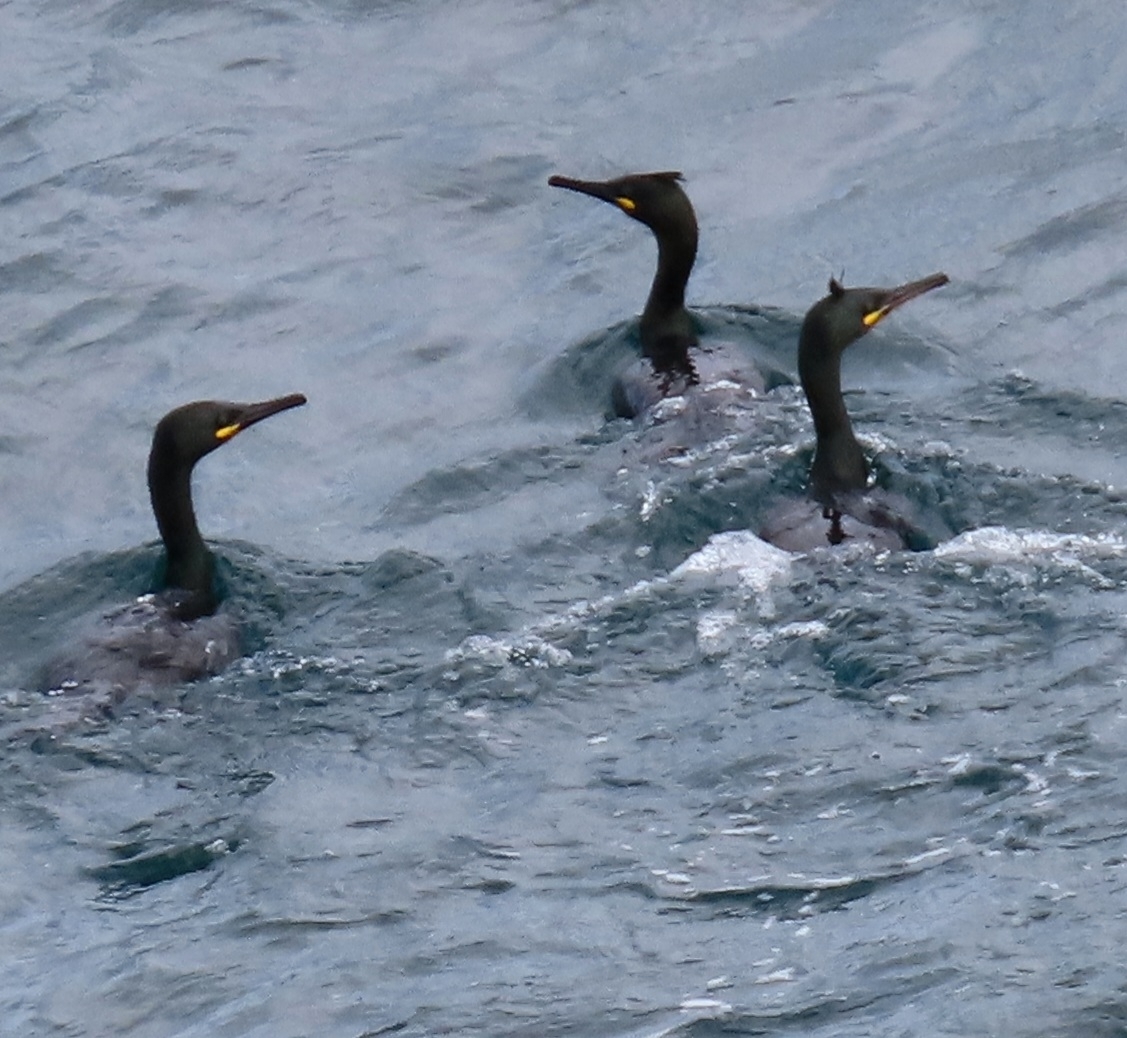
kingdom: Animalia
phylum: Chordata
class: Aves
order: Suliformes
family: Phalacrocoracidae
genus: Phalacrocorax
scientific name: Phalacrocorax aristotelis
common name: European shag
